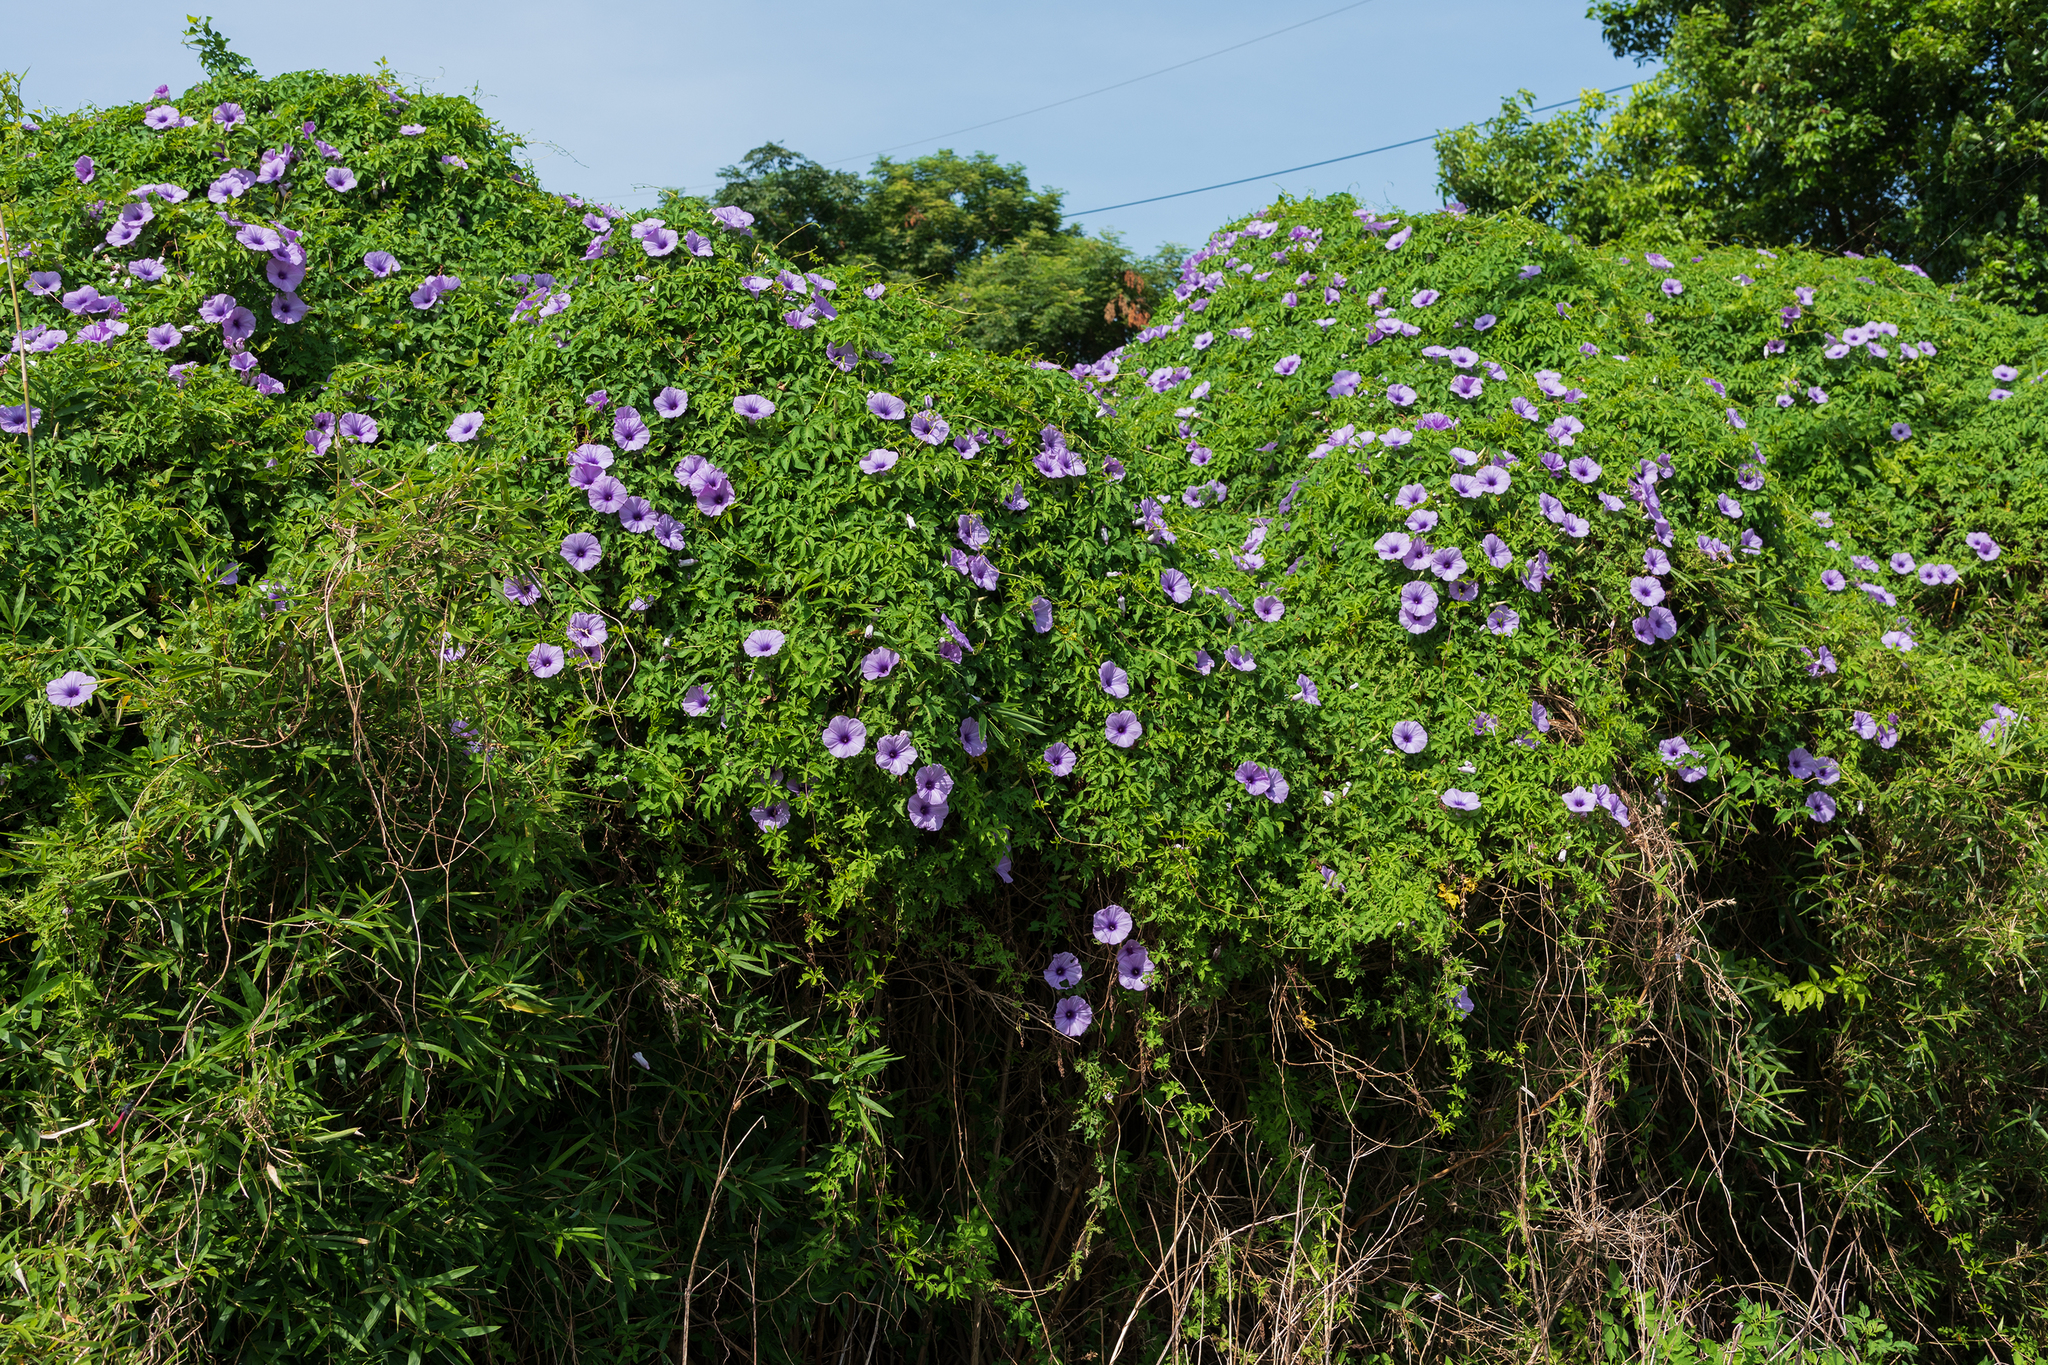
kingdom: Plantae
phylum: Tracheophyta
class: Magnoliopsida
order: Solanales
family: Convolvulaceae
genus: Ipomoea
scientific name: Ipomoea cairica
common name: Mile a minute vine
